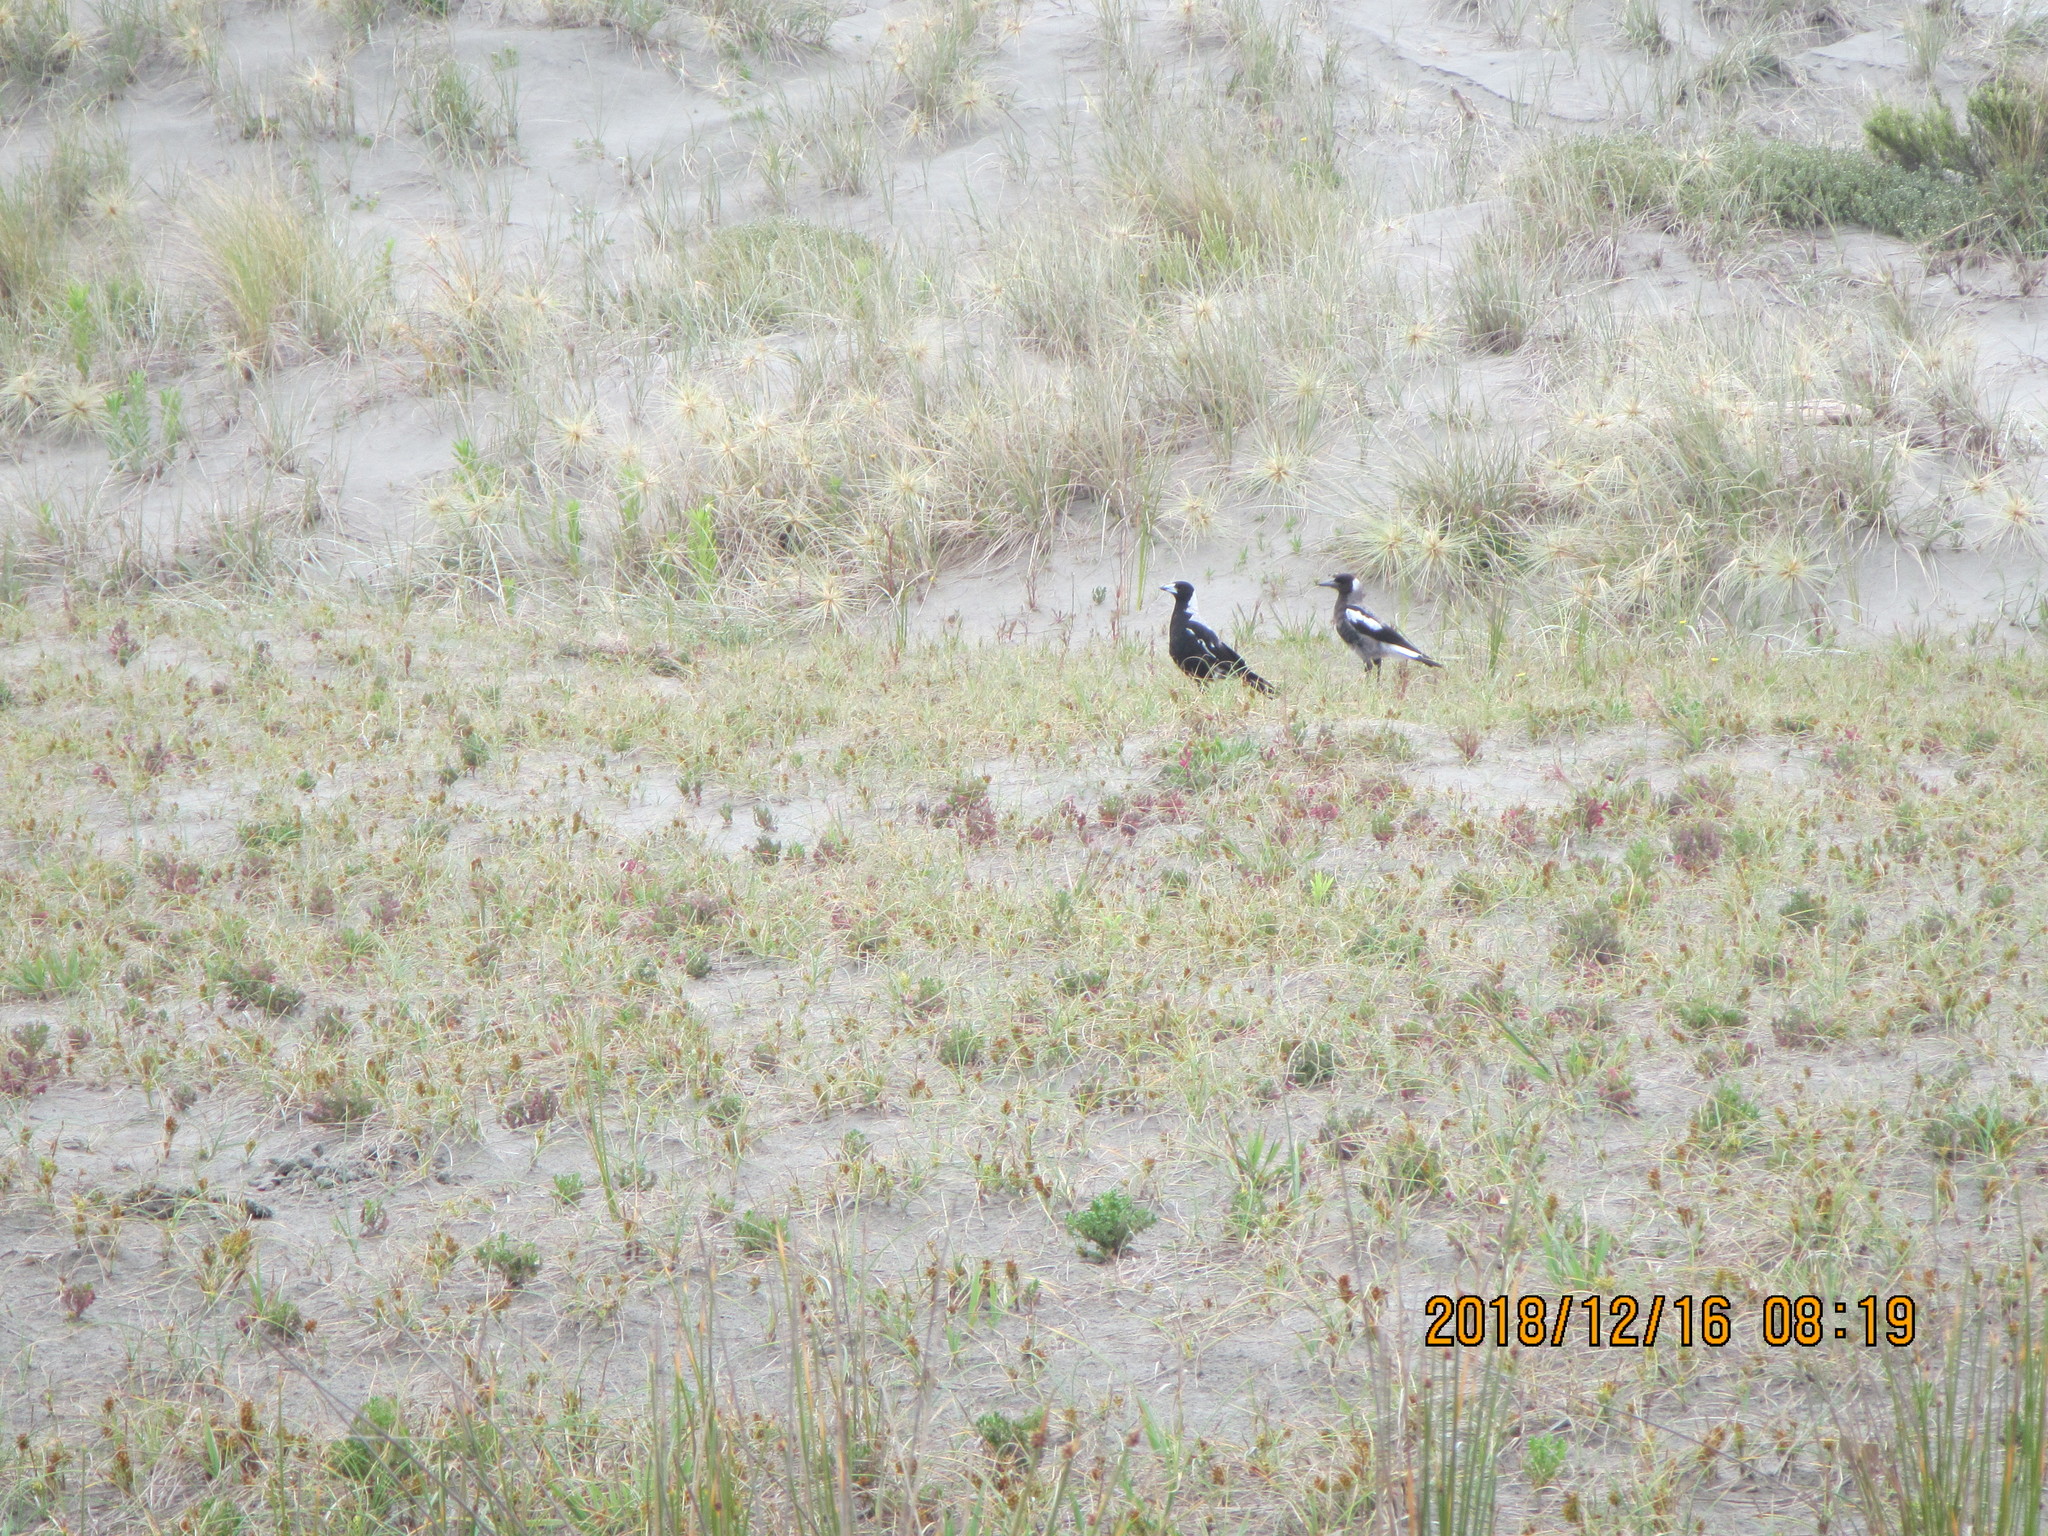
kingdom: Animalia
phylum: Chordata
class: Aves
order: Passeriformes
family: Cracticidae
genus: Gymnorhina
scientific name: Gymnorhina tibicen
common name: Australian magpie
